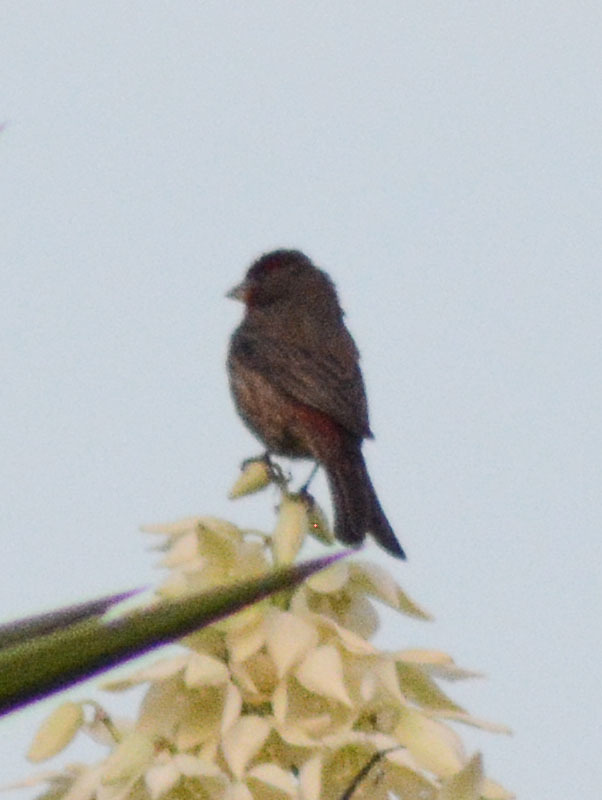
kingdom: Animalia
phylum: Chordata
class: Aves
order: Passeriformes
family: Fringillidae
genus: Haemorhous
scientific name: Haemorhous mexicanus
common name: House finch
